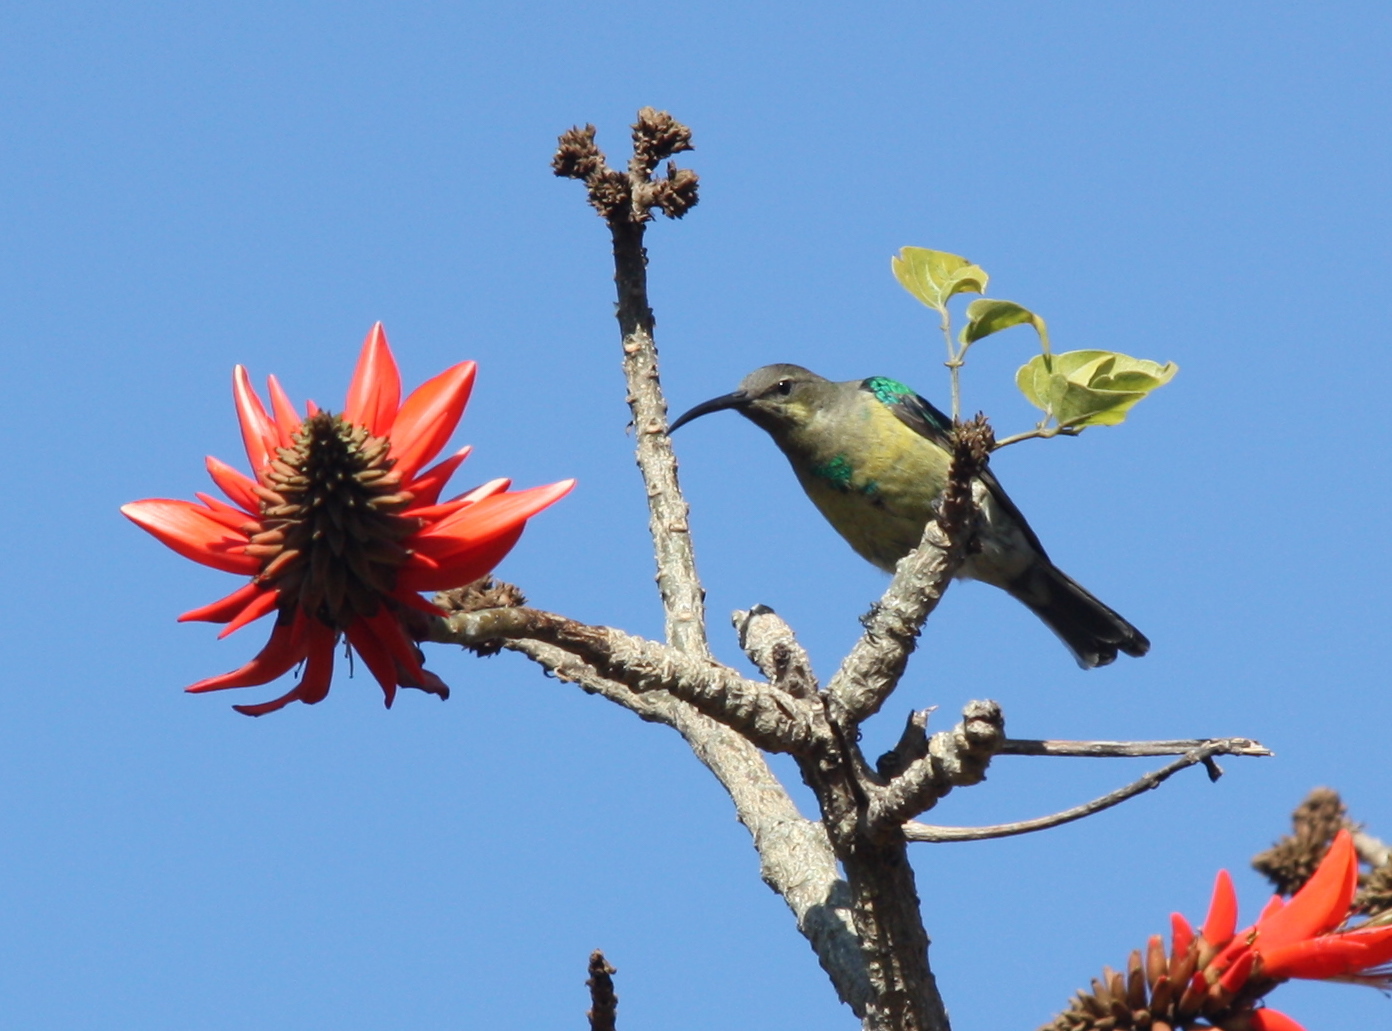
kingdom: Animalia
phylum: Chordata
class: Aves
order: Passeriformes
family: Nectariniidae
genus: Nectarinia
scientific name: Nectarinia famosa
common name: Malachite sunbird
